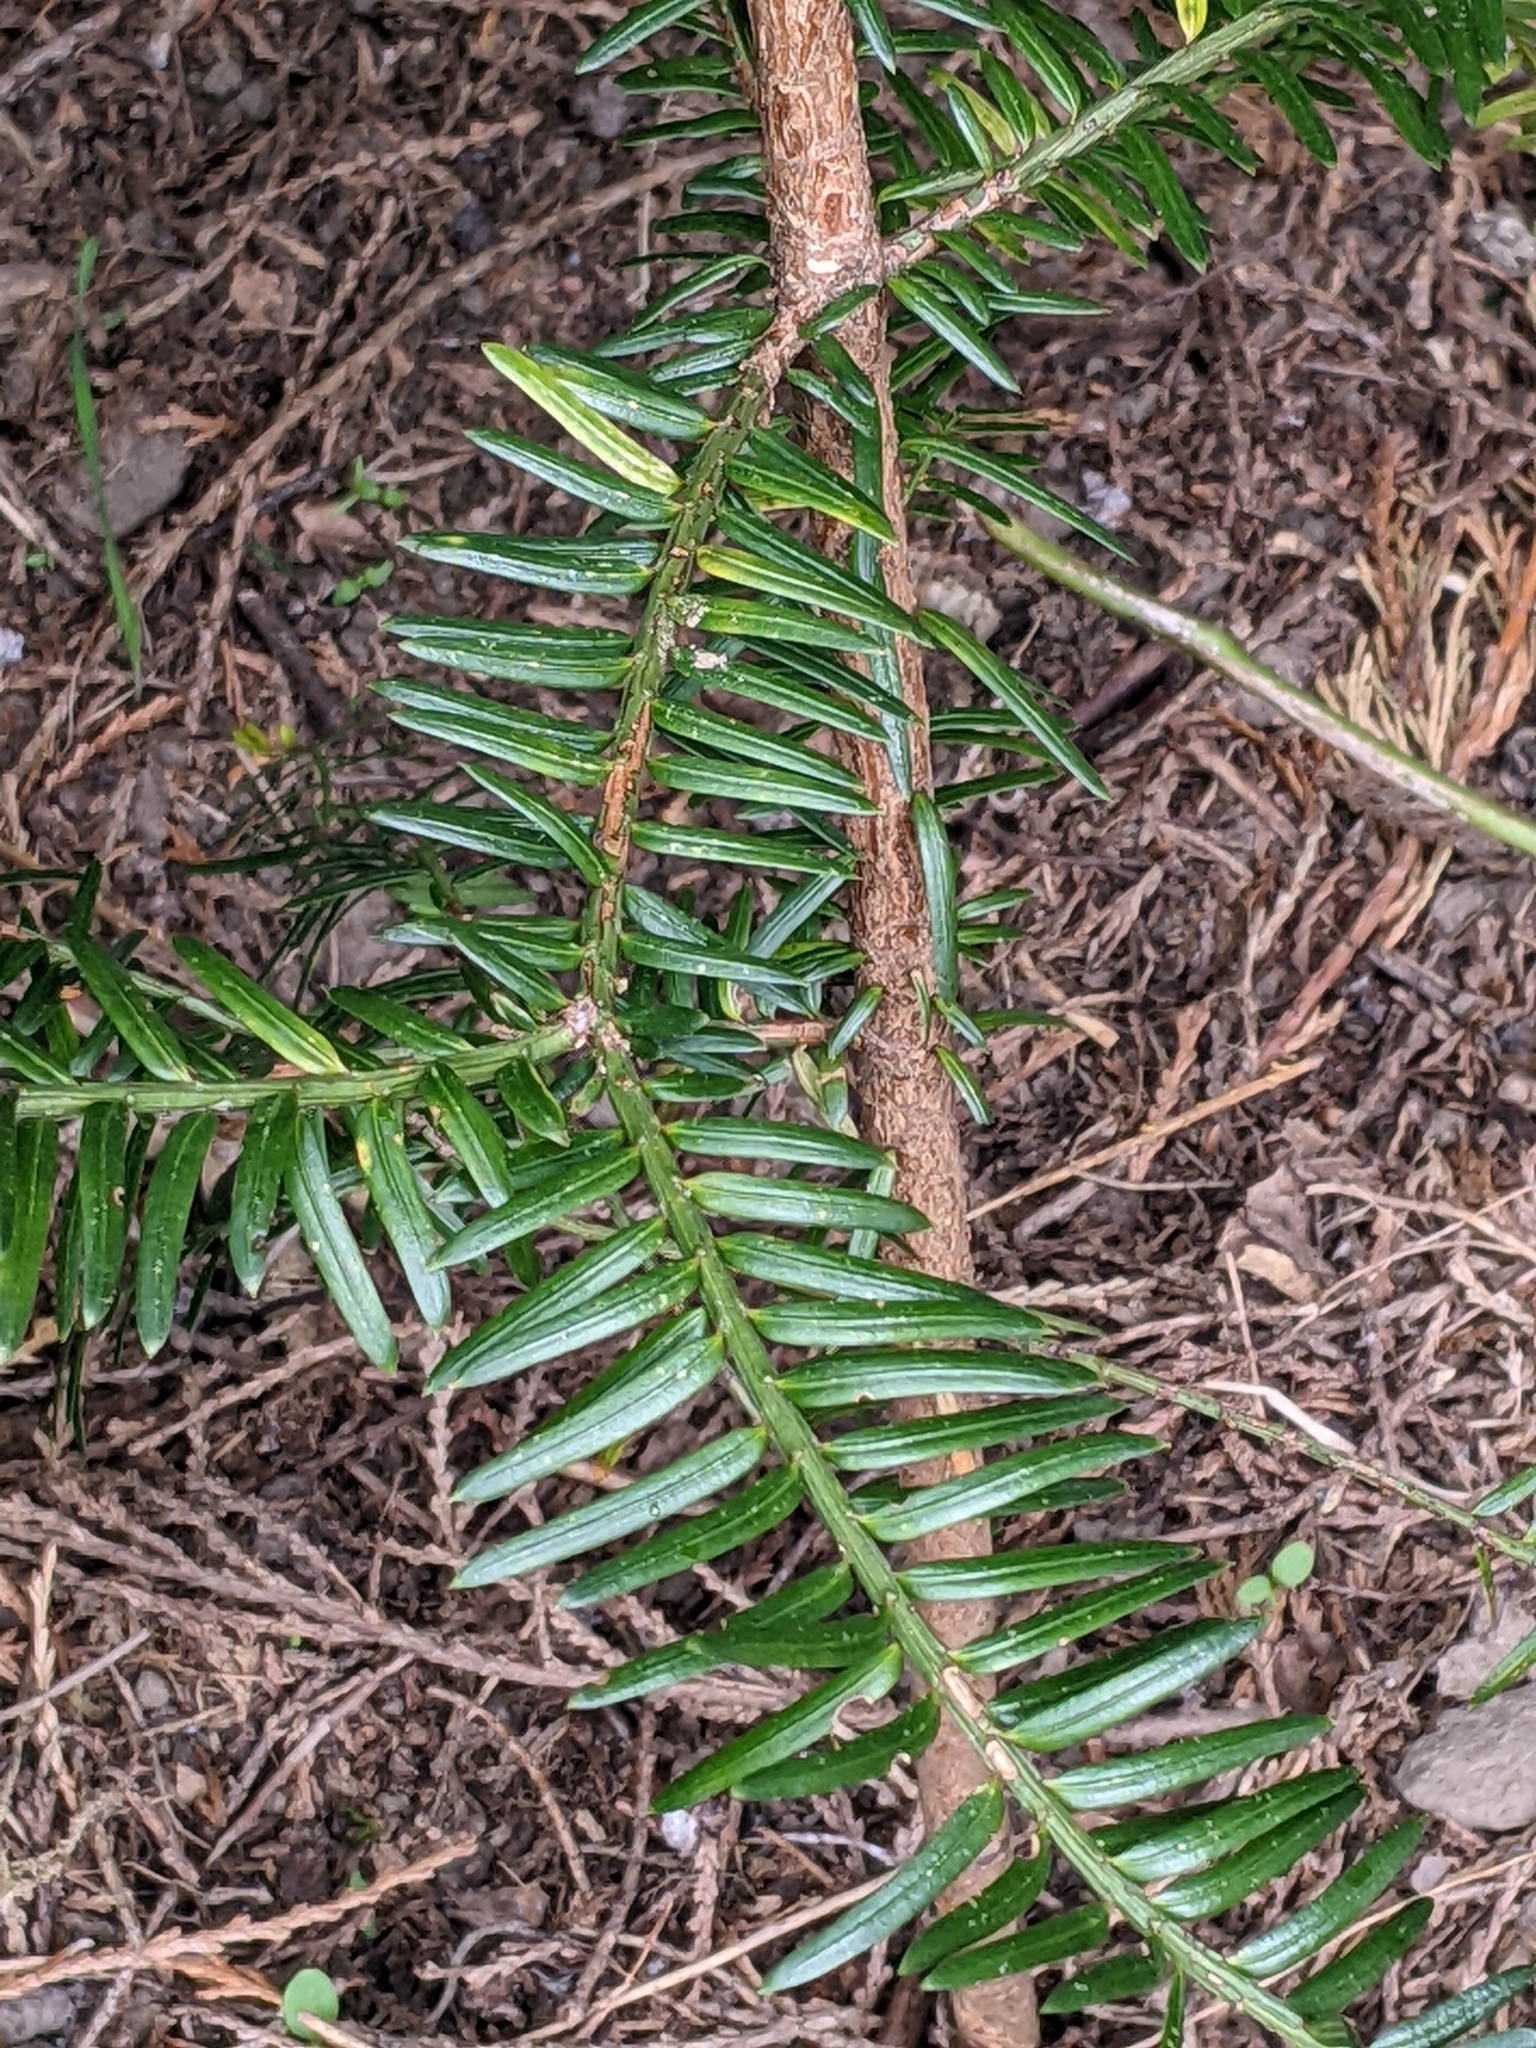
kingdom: Plantae
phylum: Tracheophyta
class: Pinopsida
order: Pinales
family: Taxaceae
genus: Taxus
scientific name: Taxus baccata
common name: Yew
